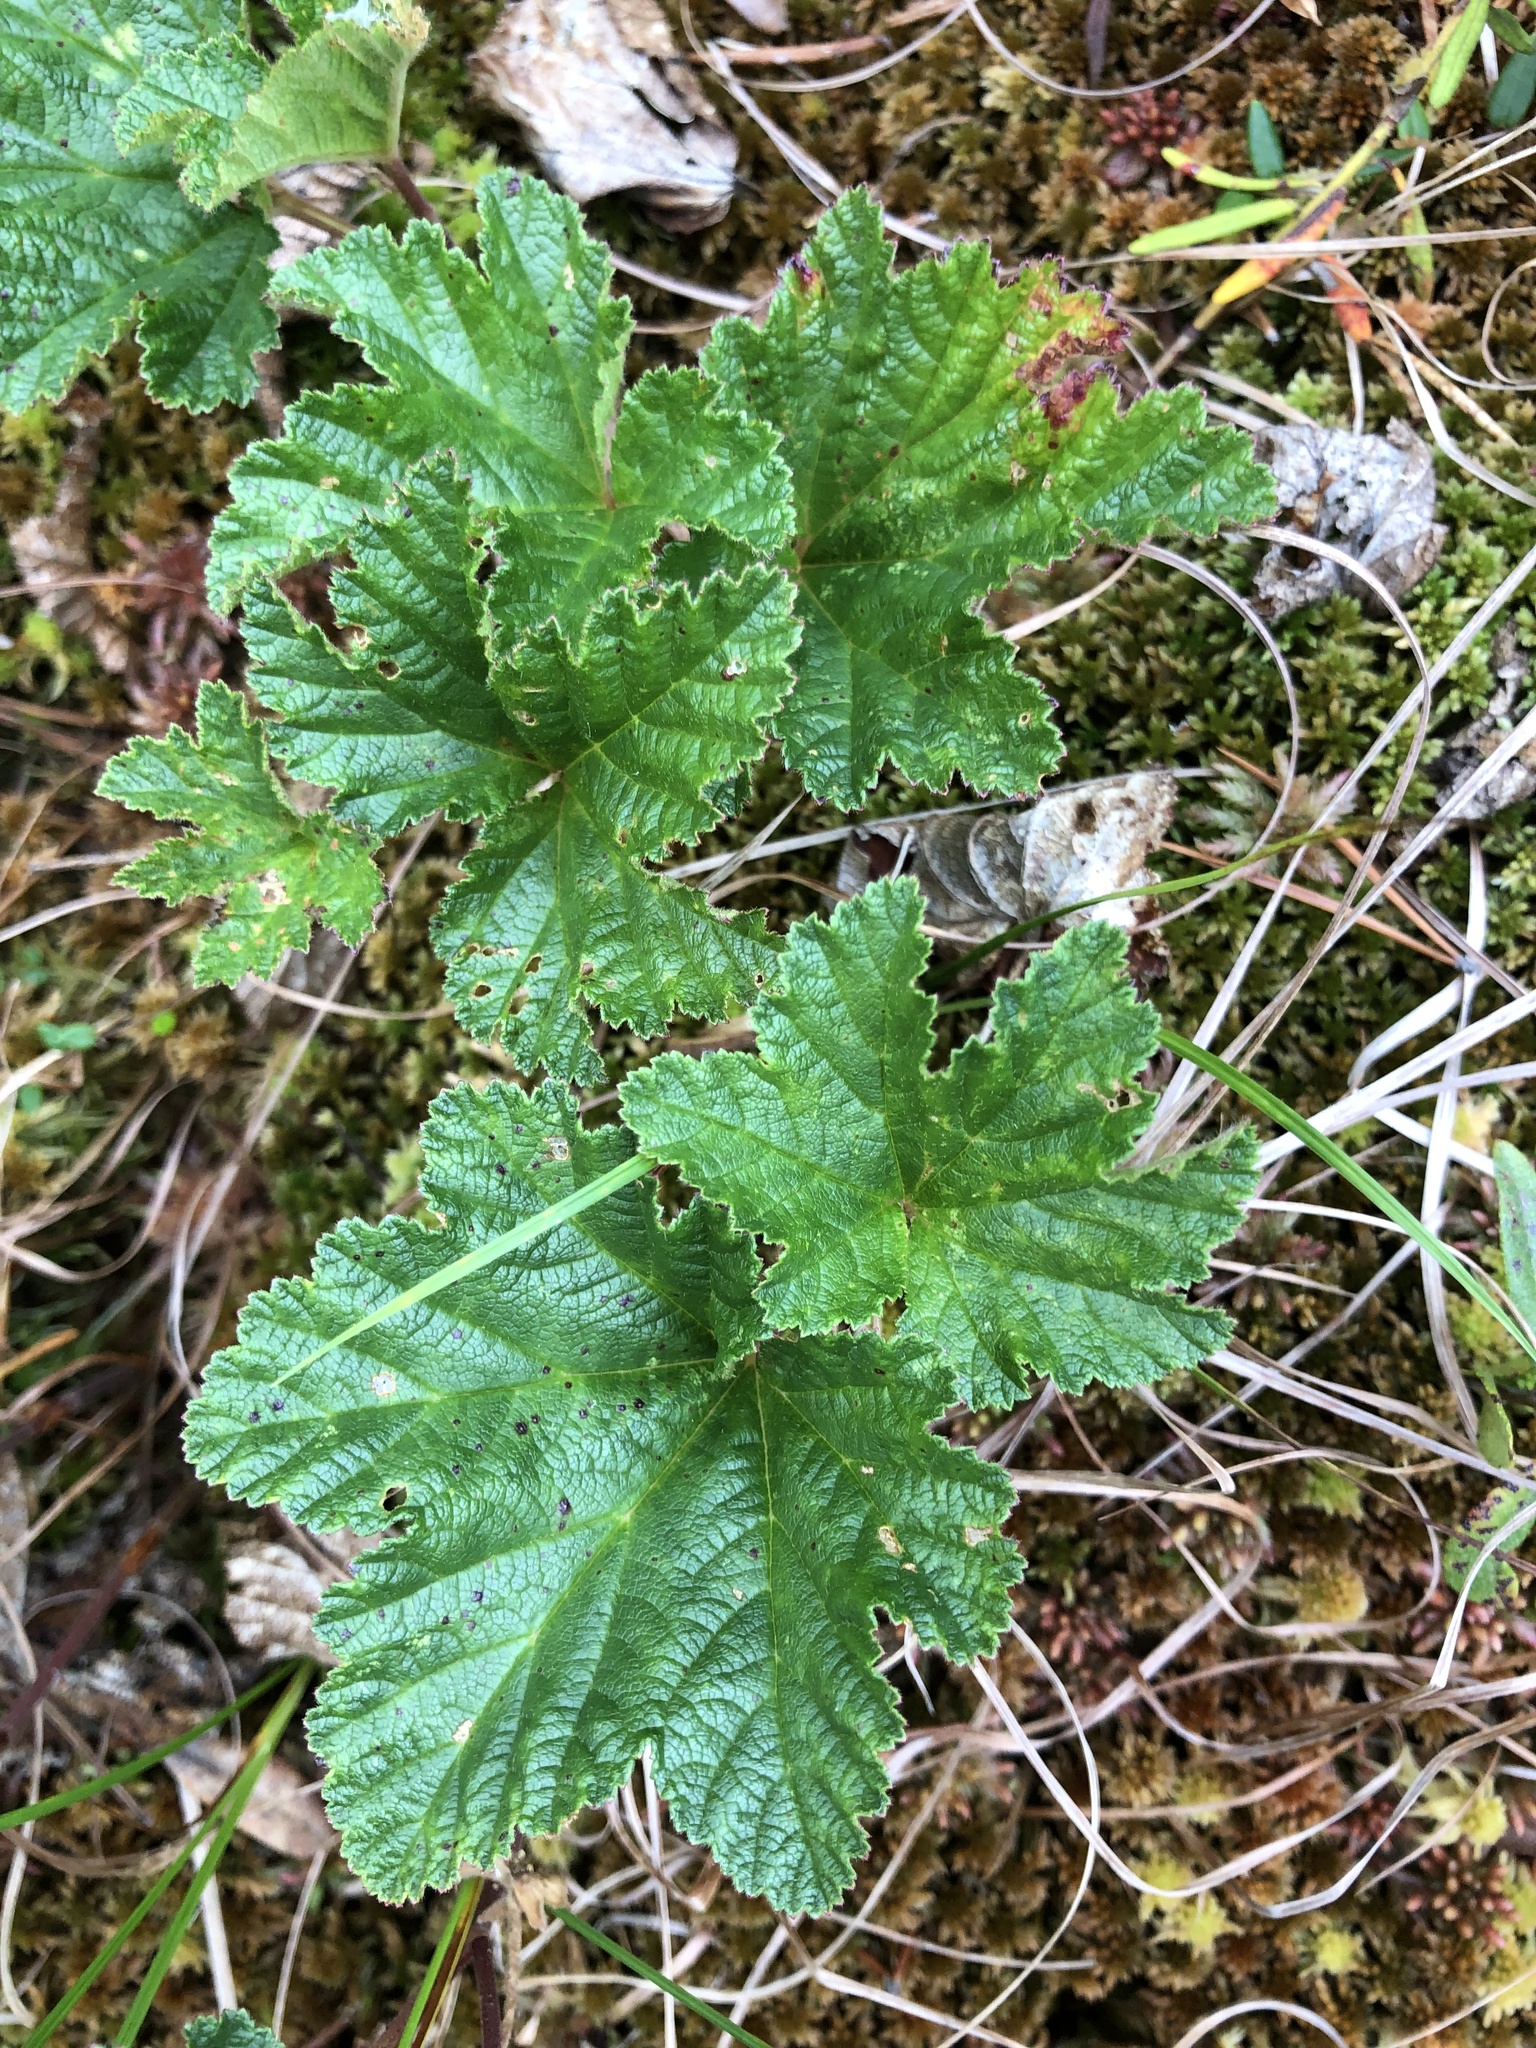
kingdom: Plantae
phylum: Tracheophyta
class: Magnoliopsida
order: Rosales
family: Rosaceae
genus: Rubus
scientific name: Rubus chamaemorus
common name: Cloudberry
